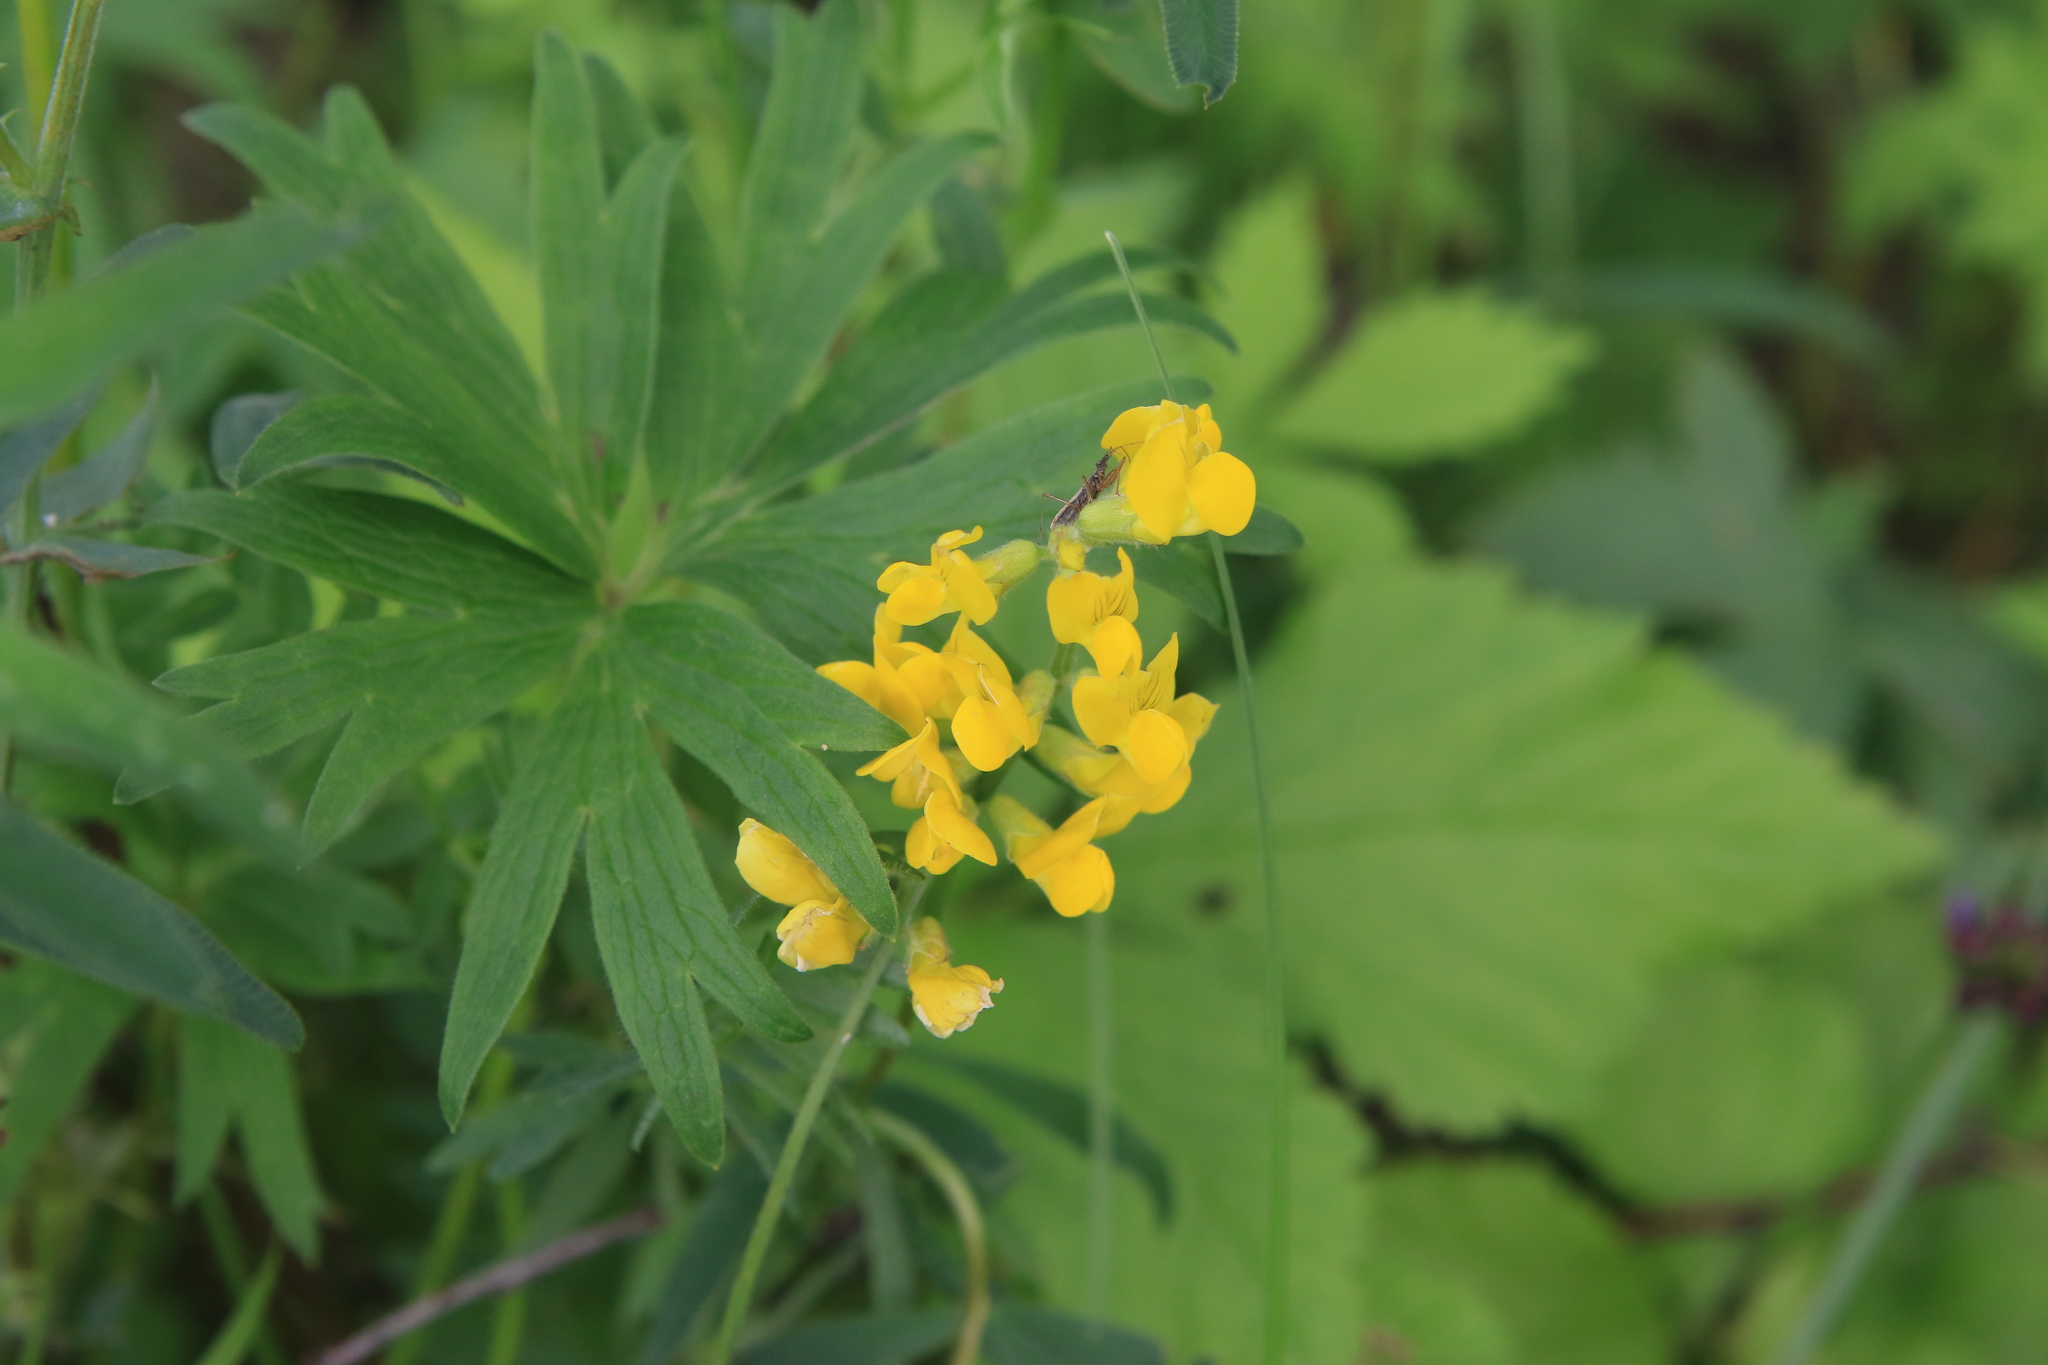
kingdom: Plantae
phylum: Tracheophyta
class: Magnoliopsida
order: Fabales
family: Fabaceae
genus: Lathyrus
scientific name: Lathyrus pratensis
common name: Meadow vetchling
